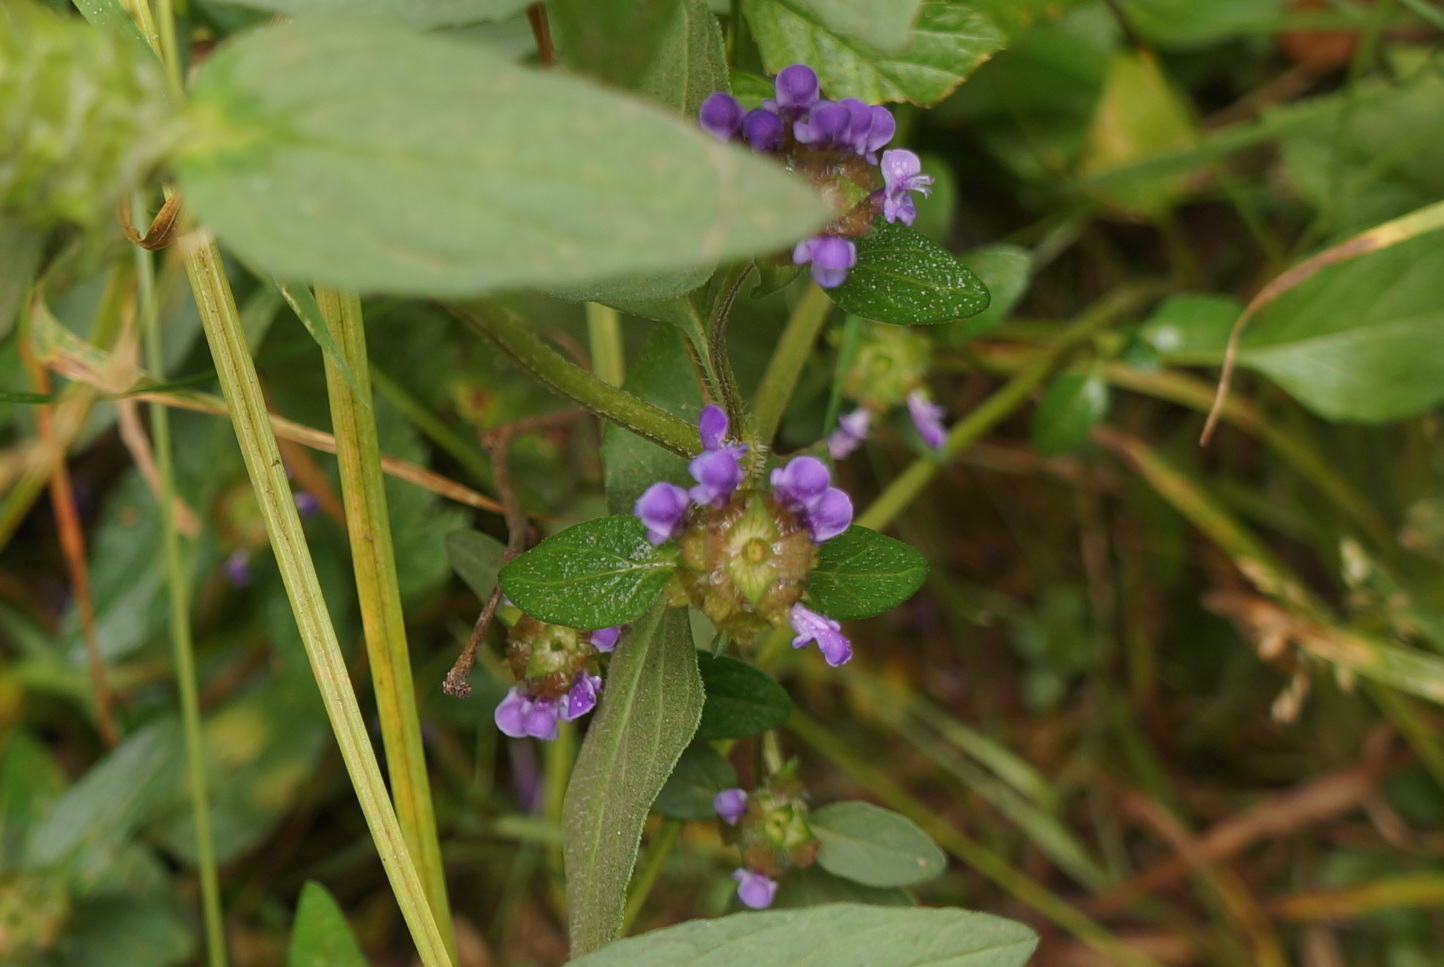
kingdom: Plantae
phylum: Tracheophyta
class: Magnoliopsida
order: Lamiales
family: Lamiaceae
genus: Prunella
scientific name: Prunella vulgaris
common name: Heal-all
